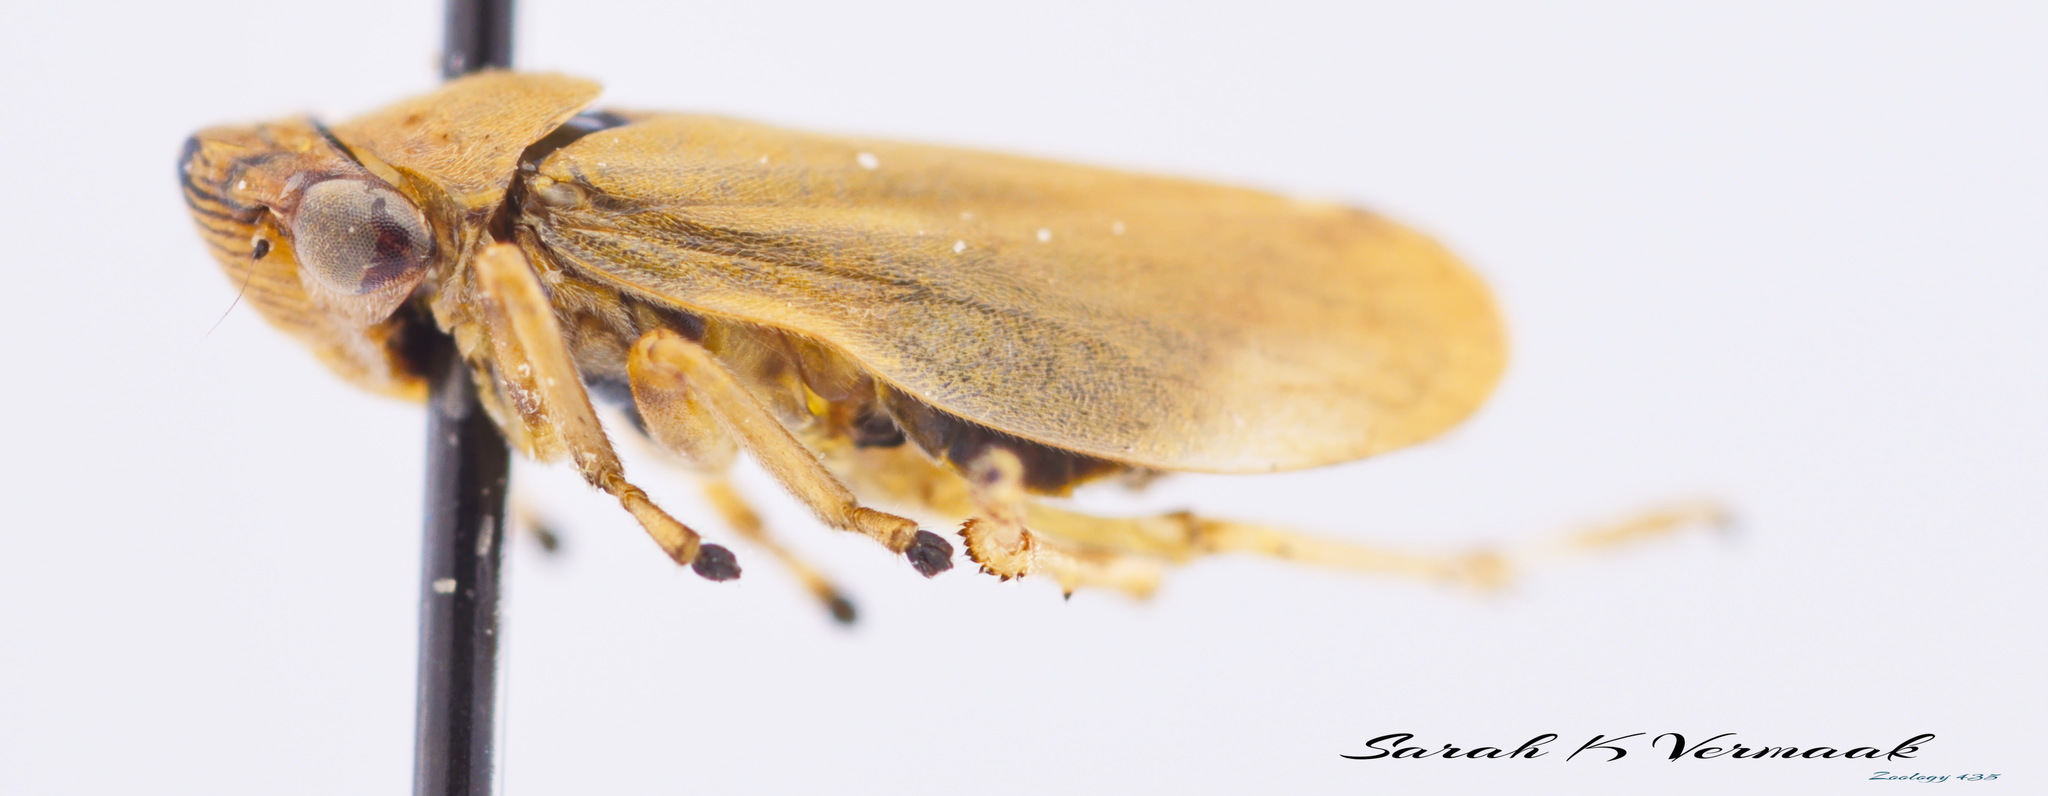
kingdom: Animalia
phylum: Arthropoda
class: Insecta
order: Hemiptera
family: Aphrophoridae
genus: Philaenus
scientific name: Philaenus spumarius
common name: Meadow spittlebug
